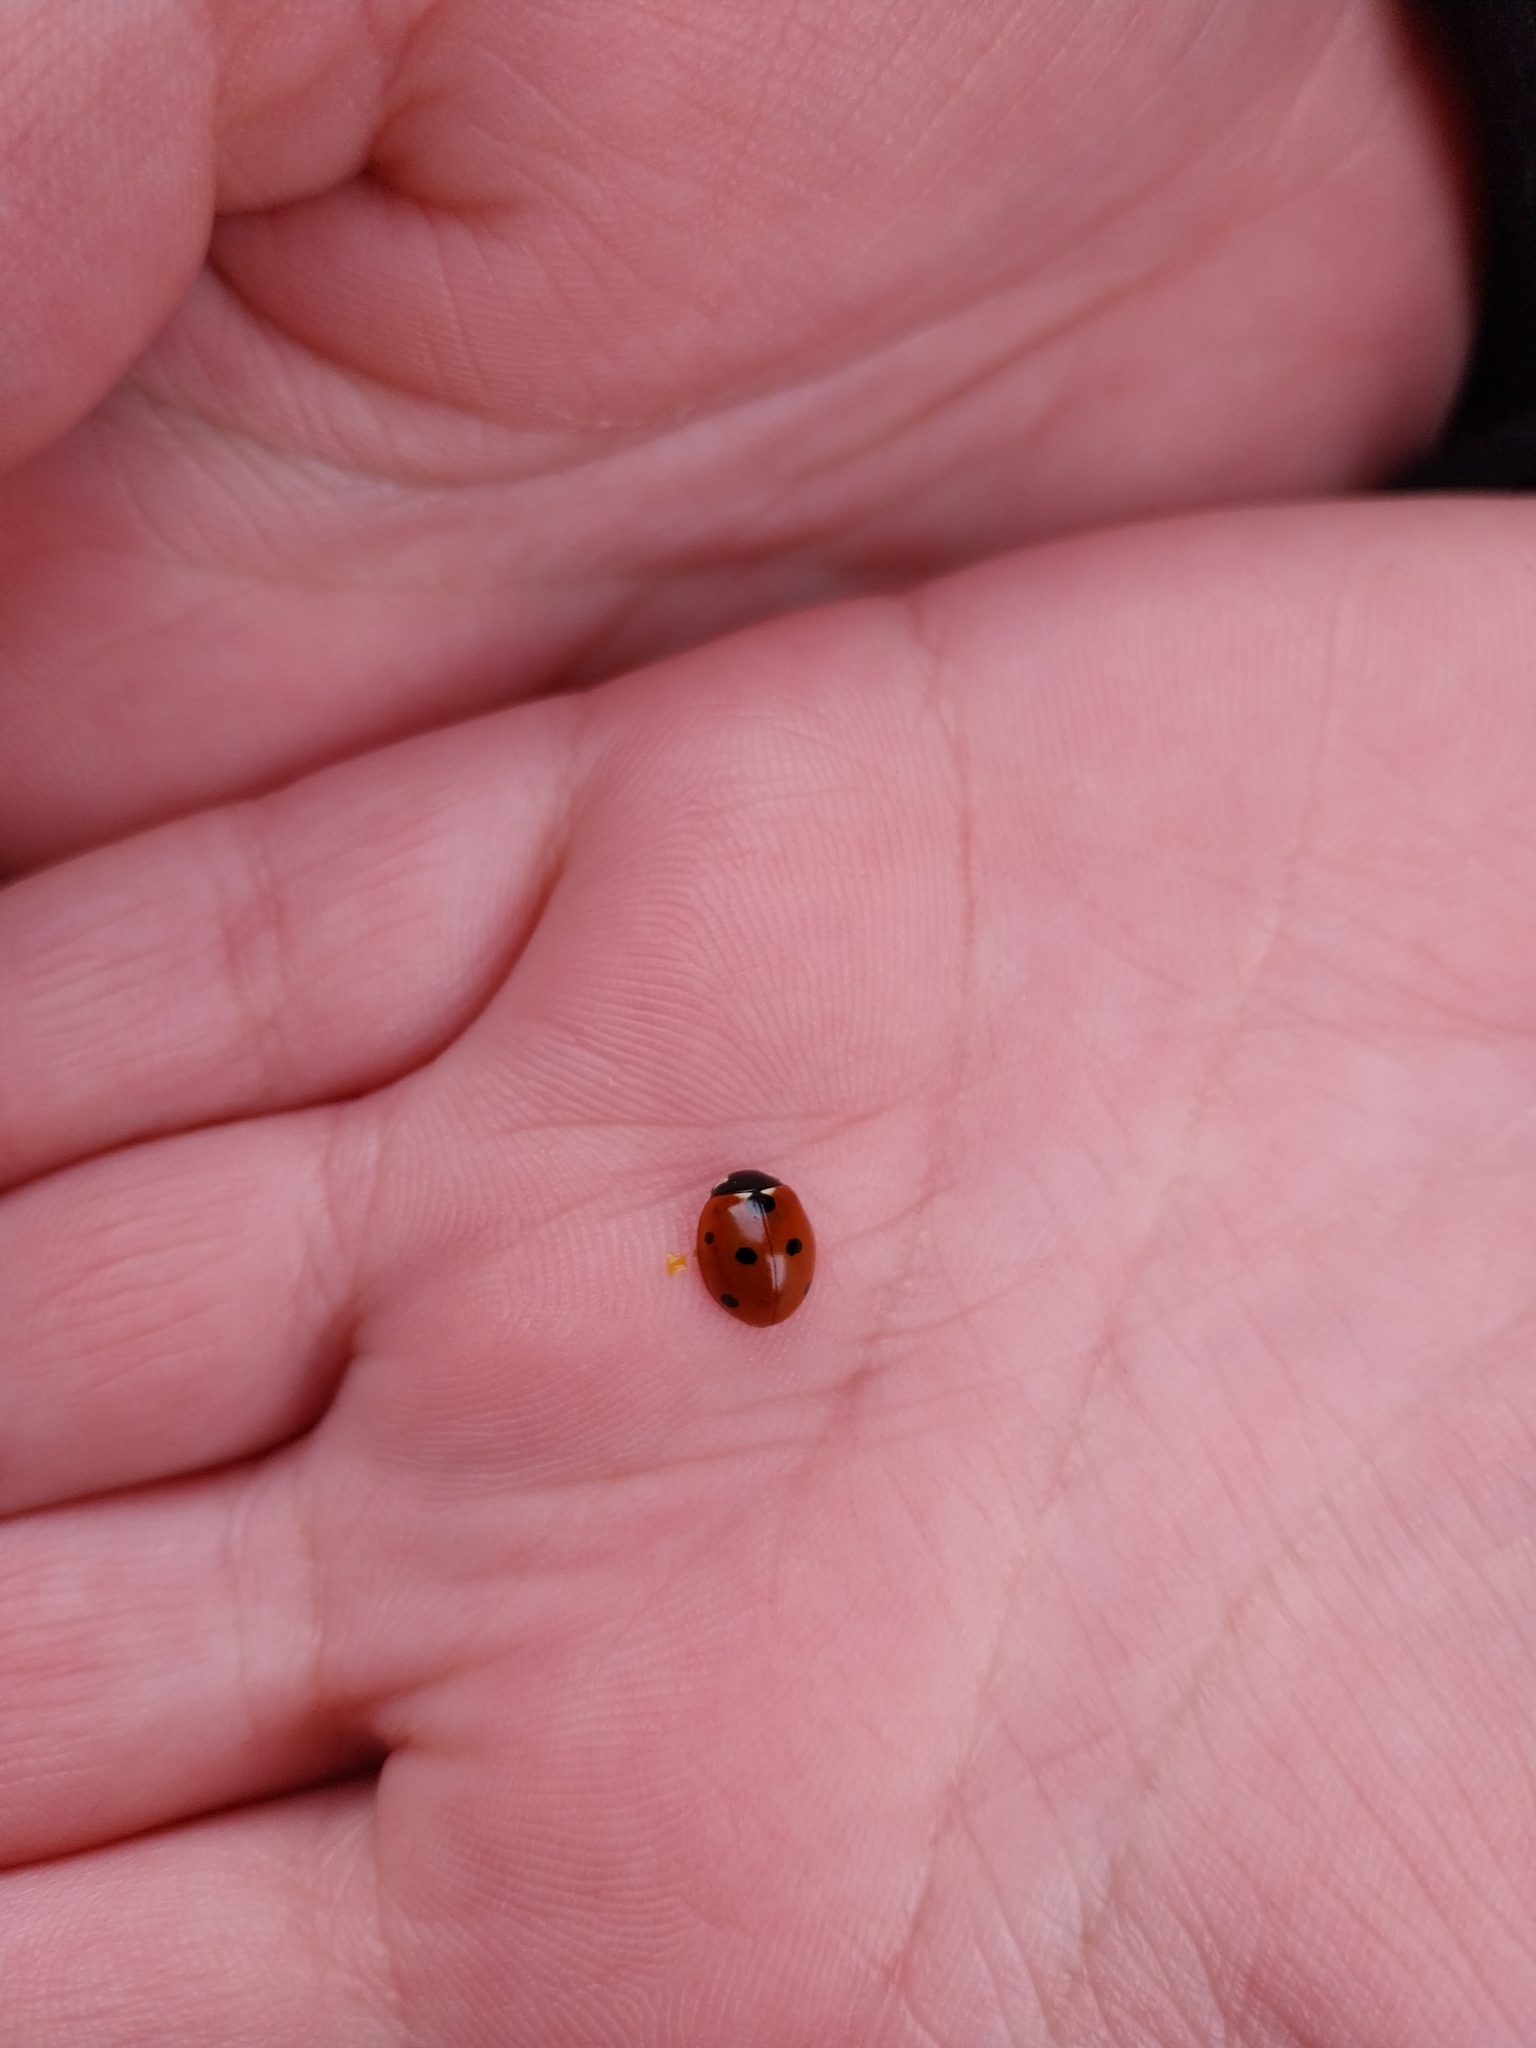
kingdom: Animalia
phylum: Arthropoda
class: Insecta
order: Coleoptera
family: Coccinellidae
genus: Coccinella
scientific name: Coccinella septempunctata
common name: Sevenspotted lady beetle
